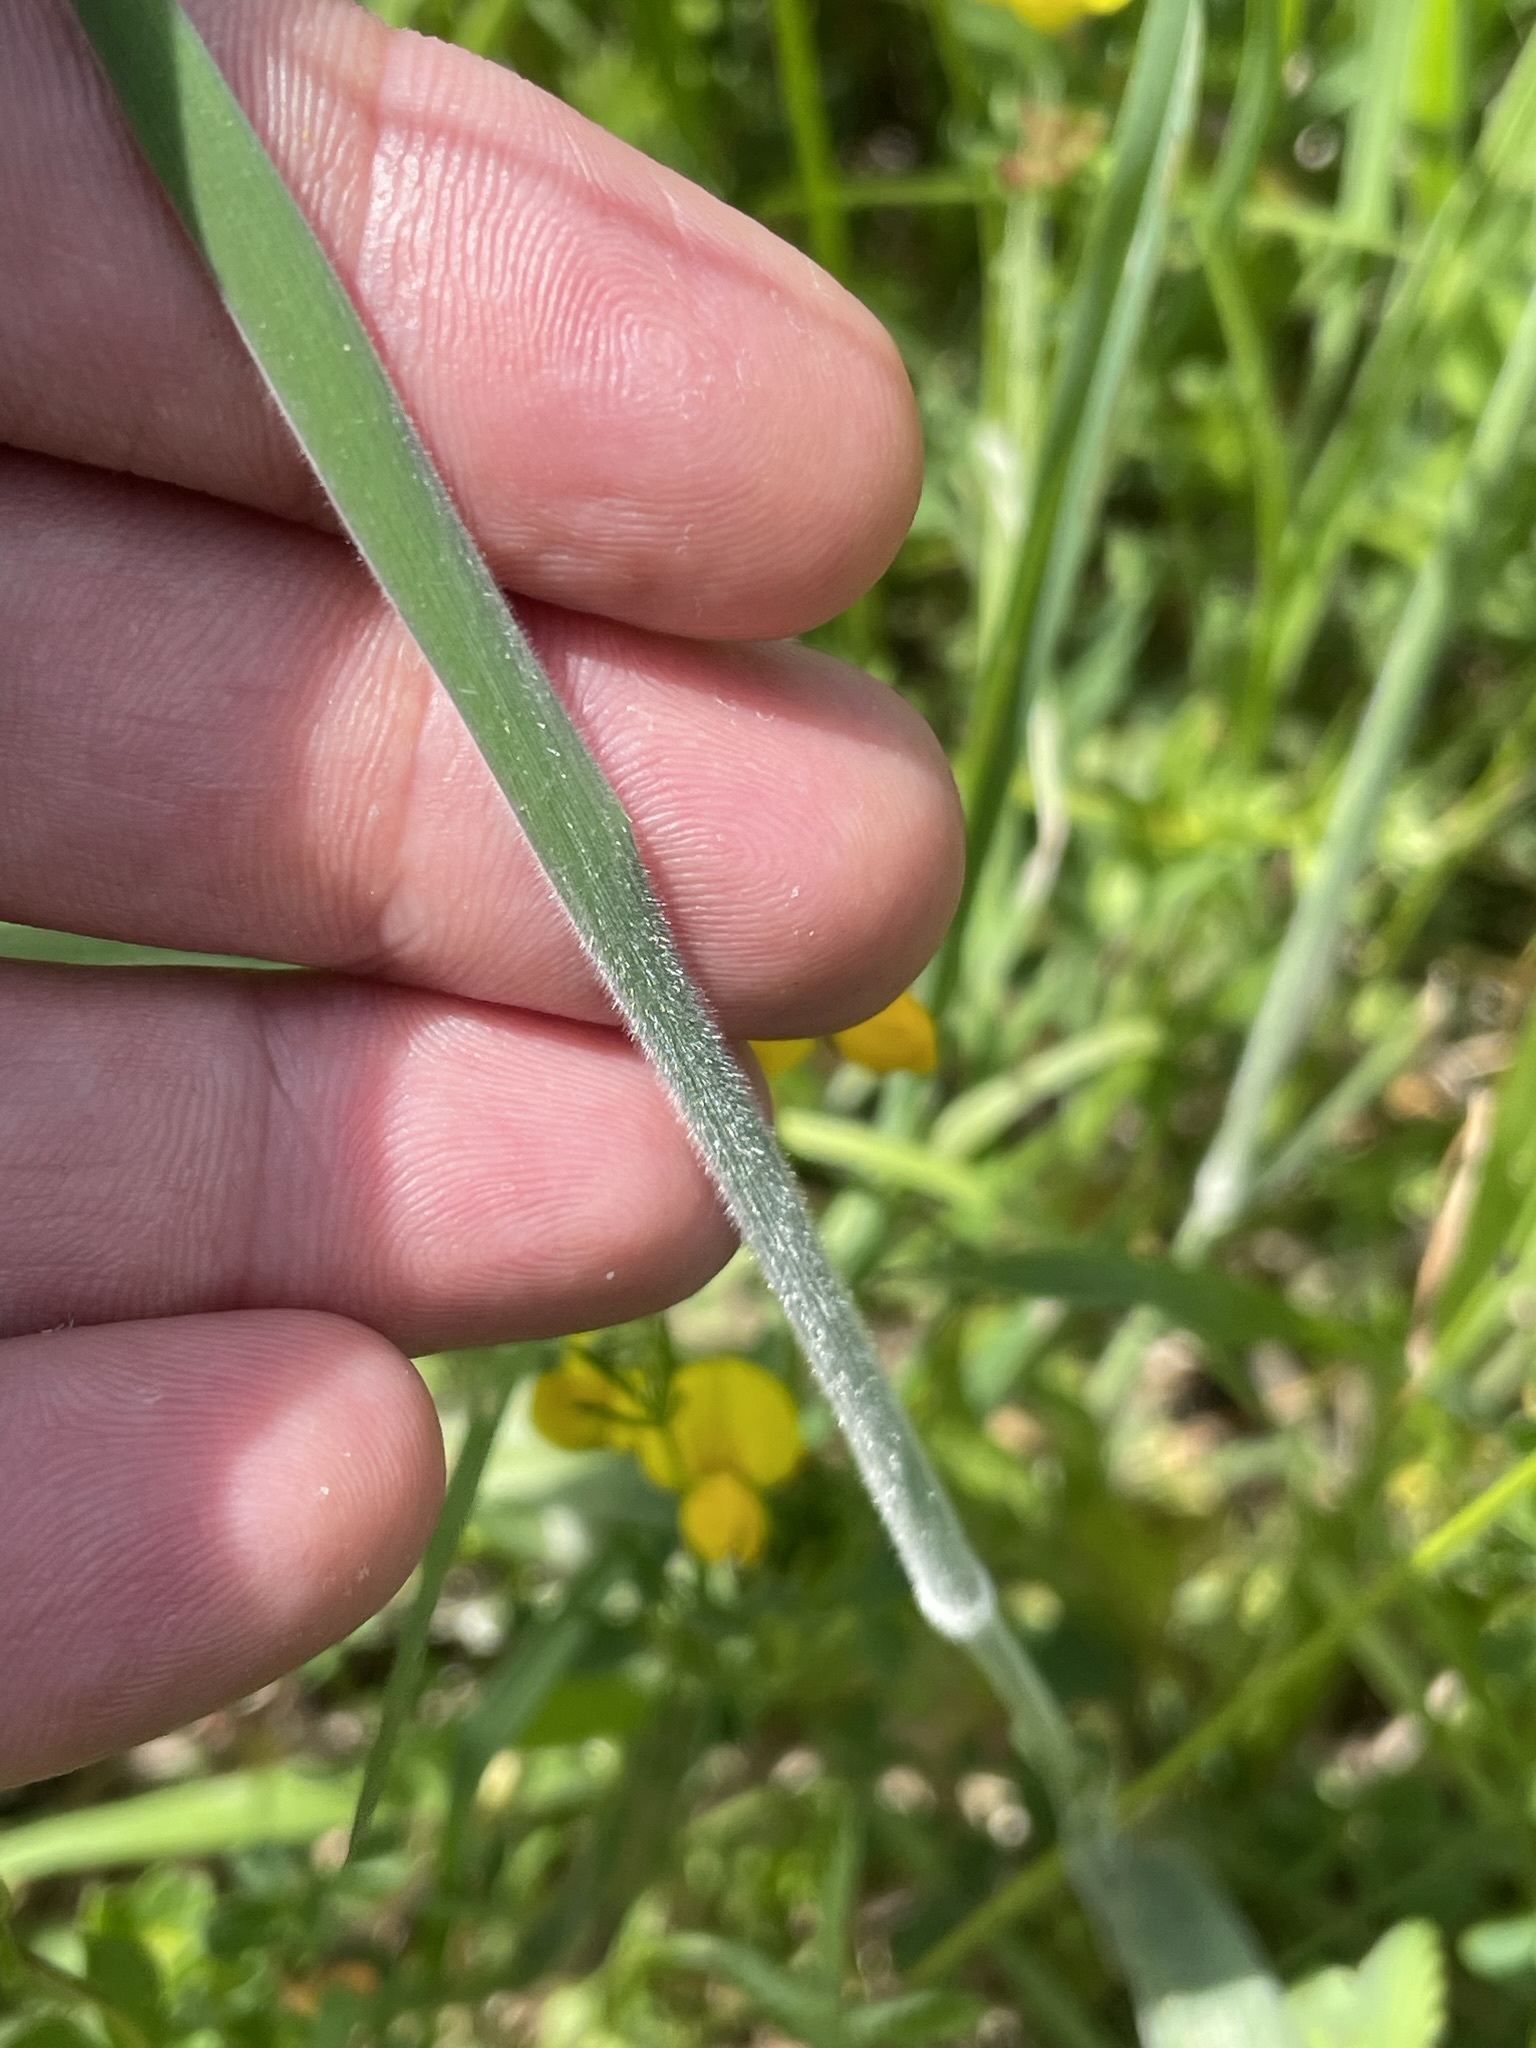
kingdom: Plantae
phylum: Tracheophyta
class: Liliopsida
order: Poales
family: Poaceae
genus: Holcus
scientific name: Holcus lanatus
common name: Yorkshire-fog
